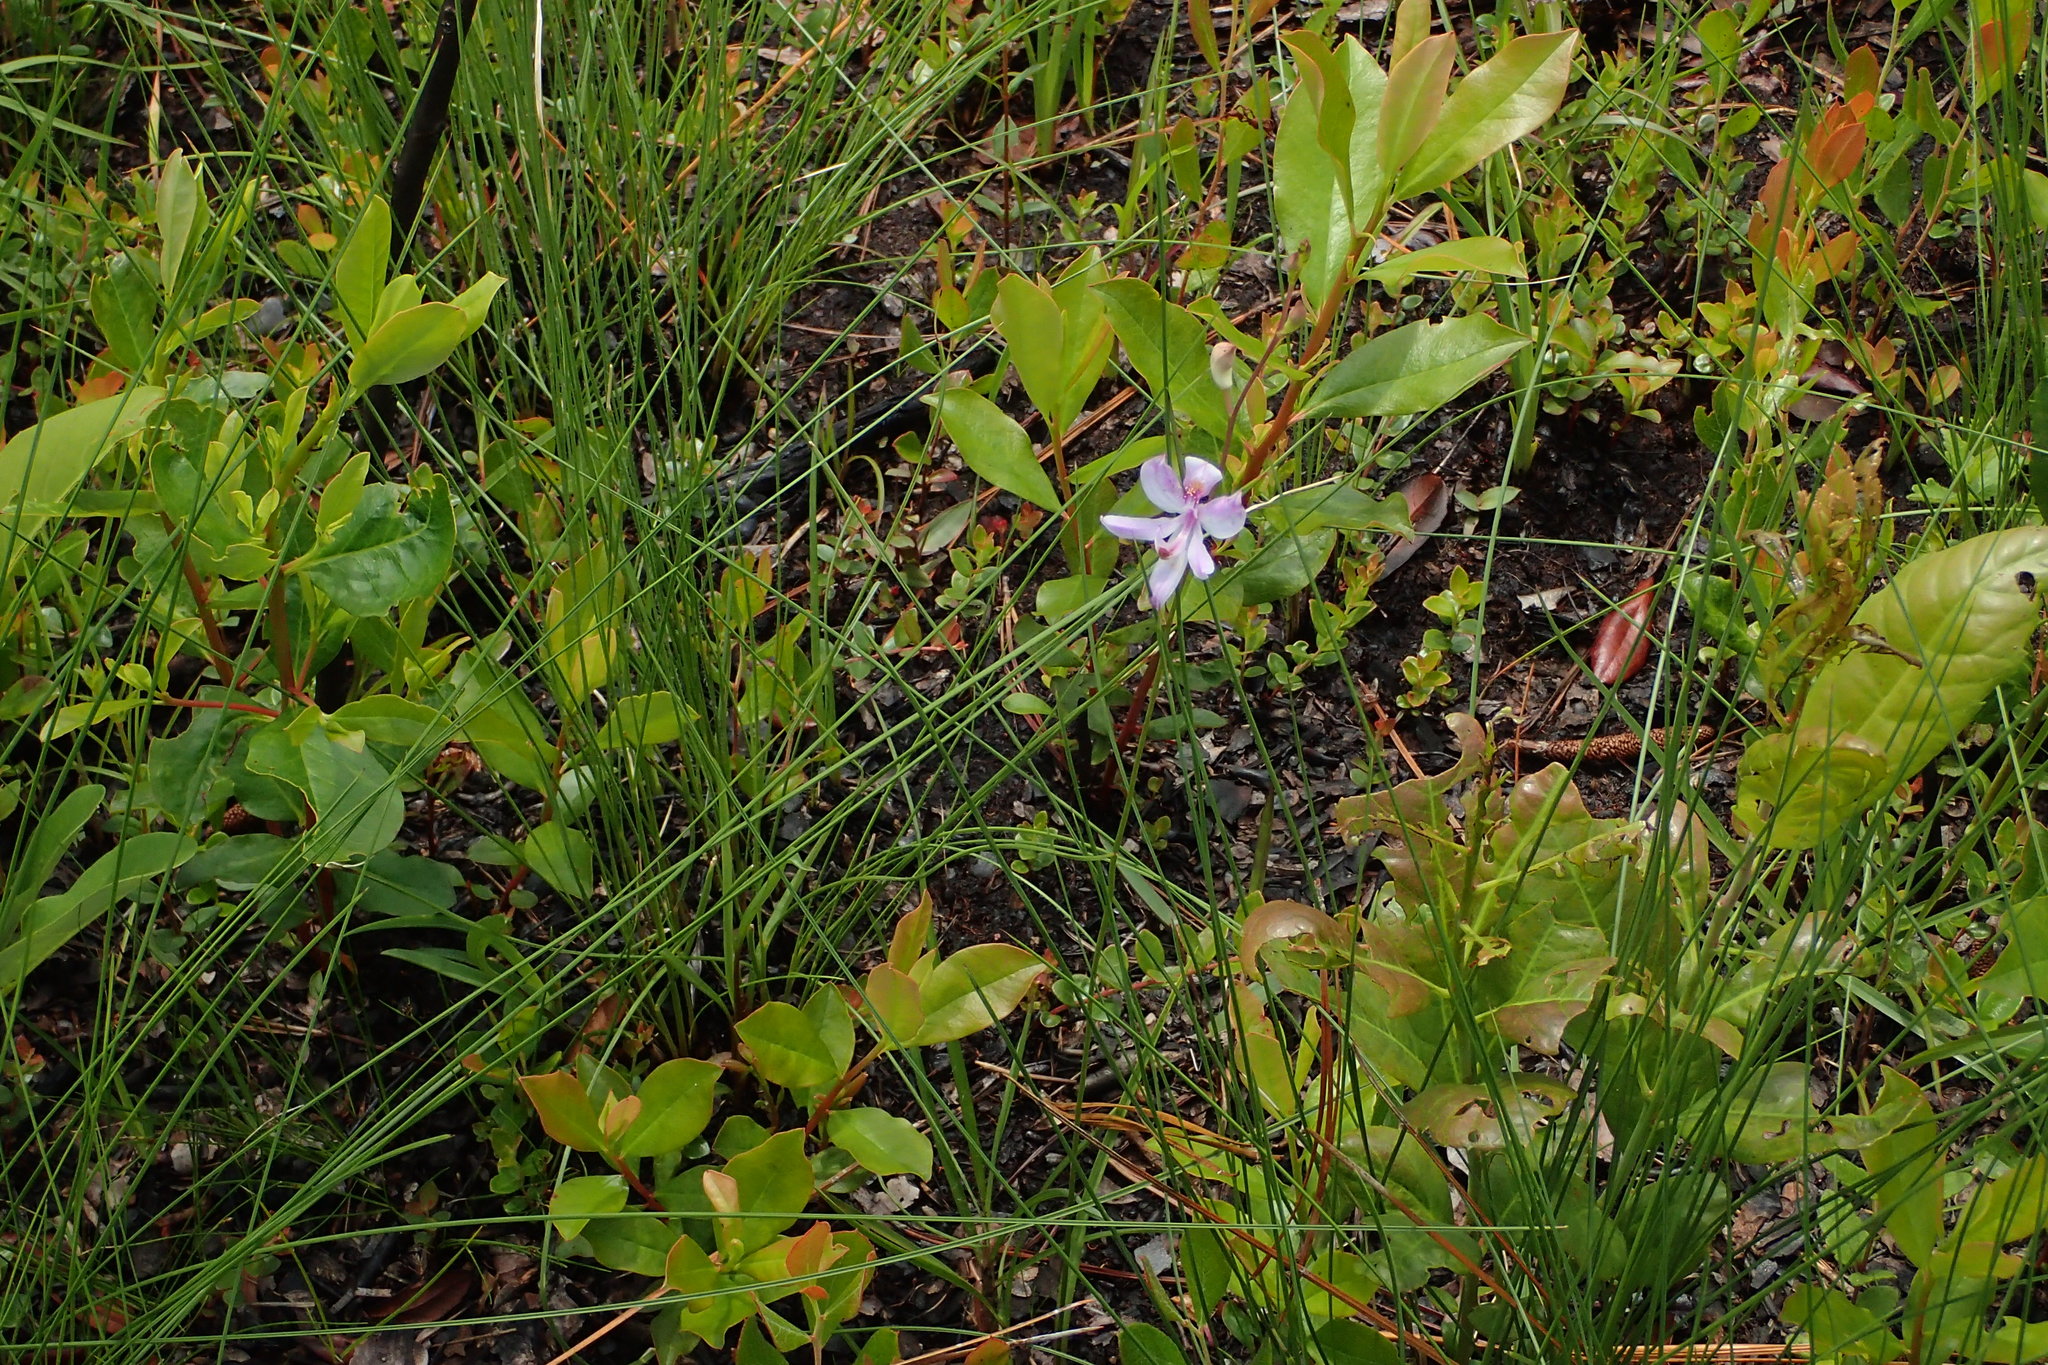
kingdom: Plantae
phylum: Tracheophyta
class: Liliopsida
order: Asparagales
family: Orchidaceae
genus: Calopogon
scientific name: Calopogon pallidus
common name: Pale grasspink
